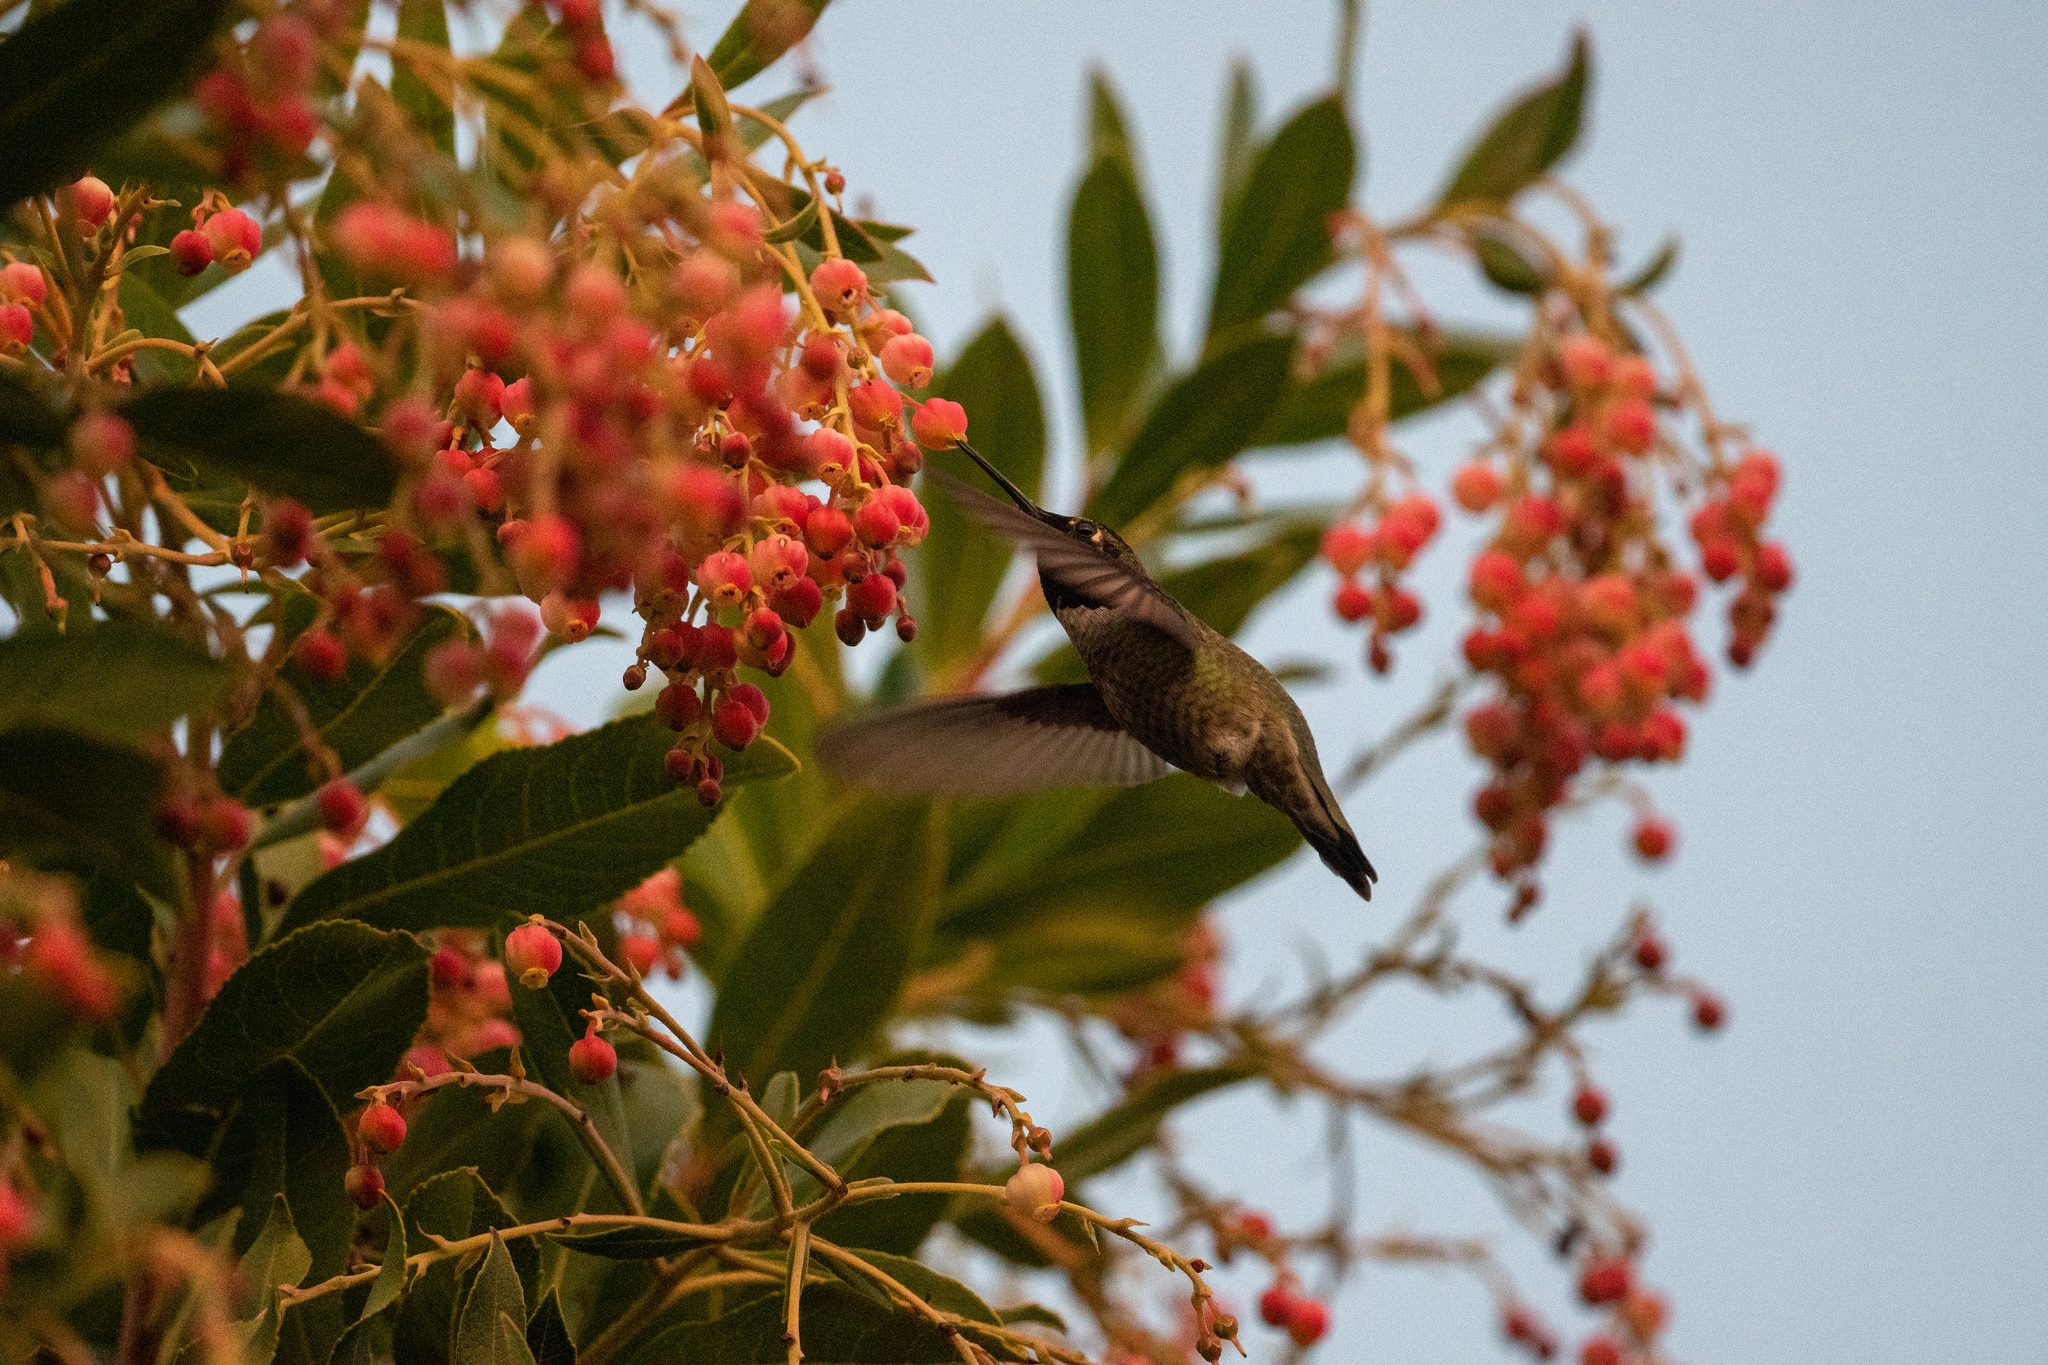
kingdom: Animalia
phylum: Chordata
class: Aves
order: Apodiformes
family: Trochilidae
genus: Calypte
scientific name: Calypte anna
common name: Anna's hummingbird
